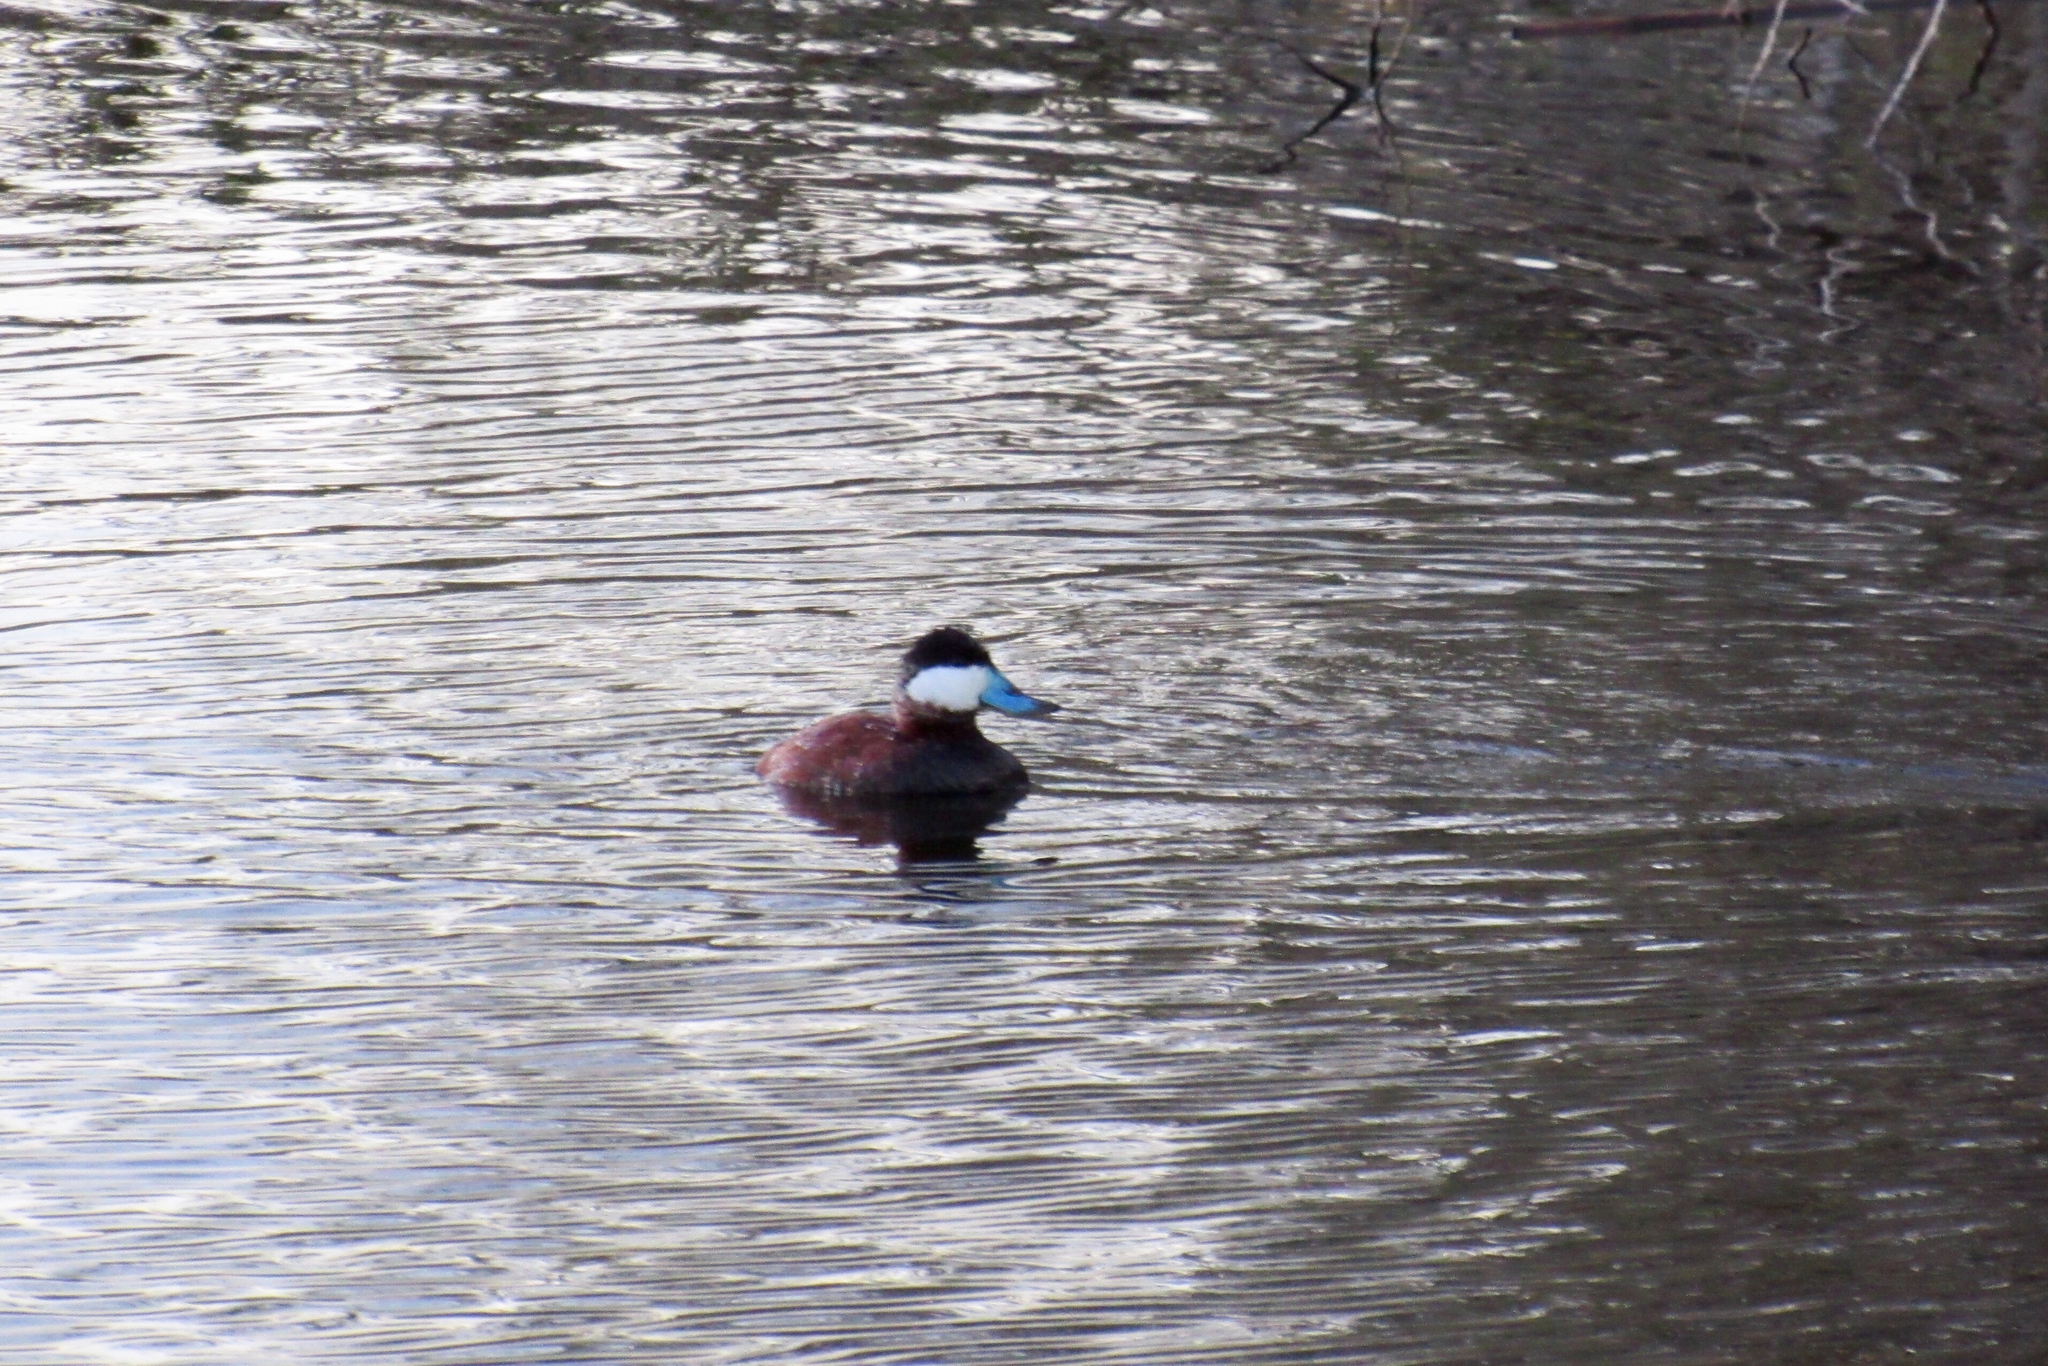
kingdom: Animalia
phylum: Chordata
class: Aves
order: Anseriformes
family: Anatidae
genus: Oxyura
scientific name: Oxyura jamaicensis
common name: Ruddy duck
